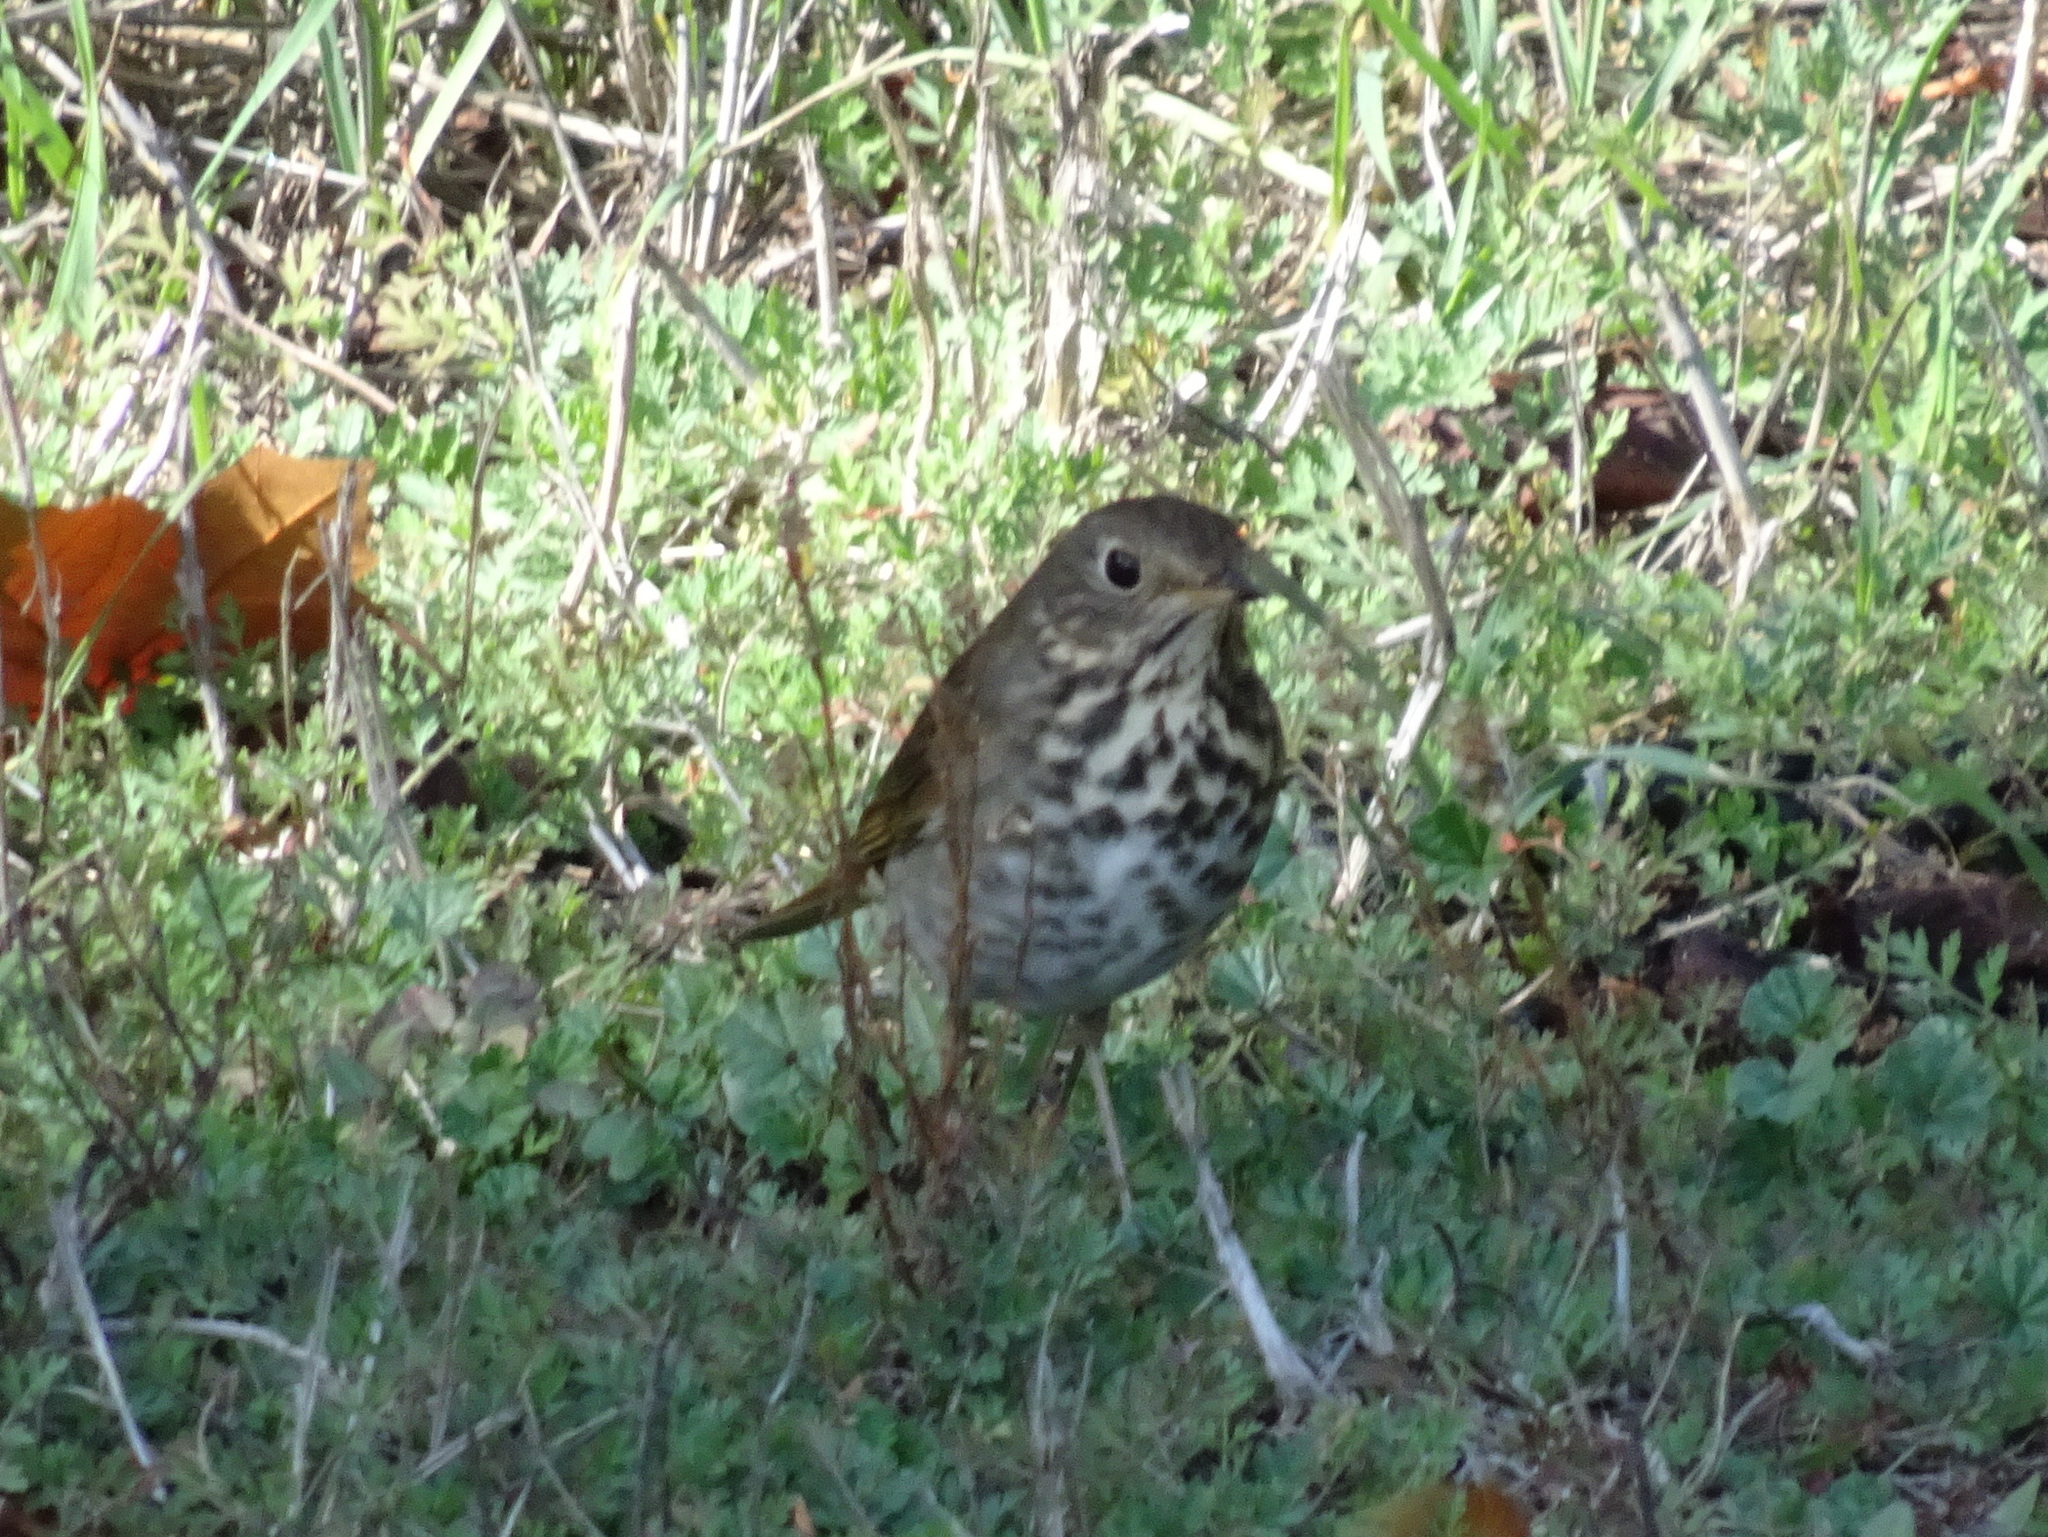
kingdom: Animalia
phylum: Chordata
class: Aves
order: Passeriformes
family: Turdidae
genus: Catharus
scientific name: Catharus guttatus
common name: Hermit thrush
